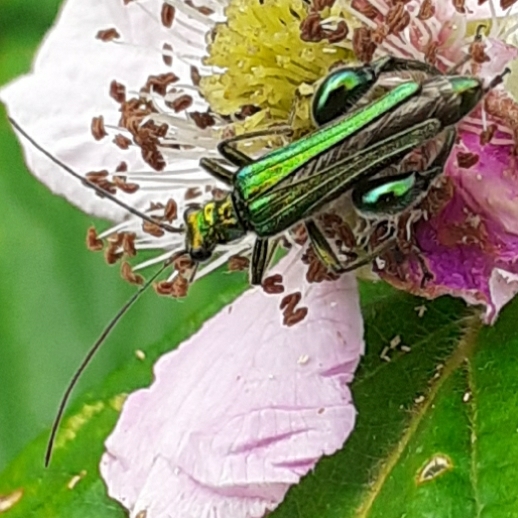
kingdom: Animalia
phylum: Arthropoda
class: Insecta
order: Coleoptera
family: Oedemeridae
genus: Oedemera
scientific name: Oedemera nobilis
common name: Swollen-thighed beetle
